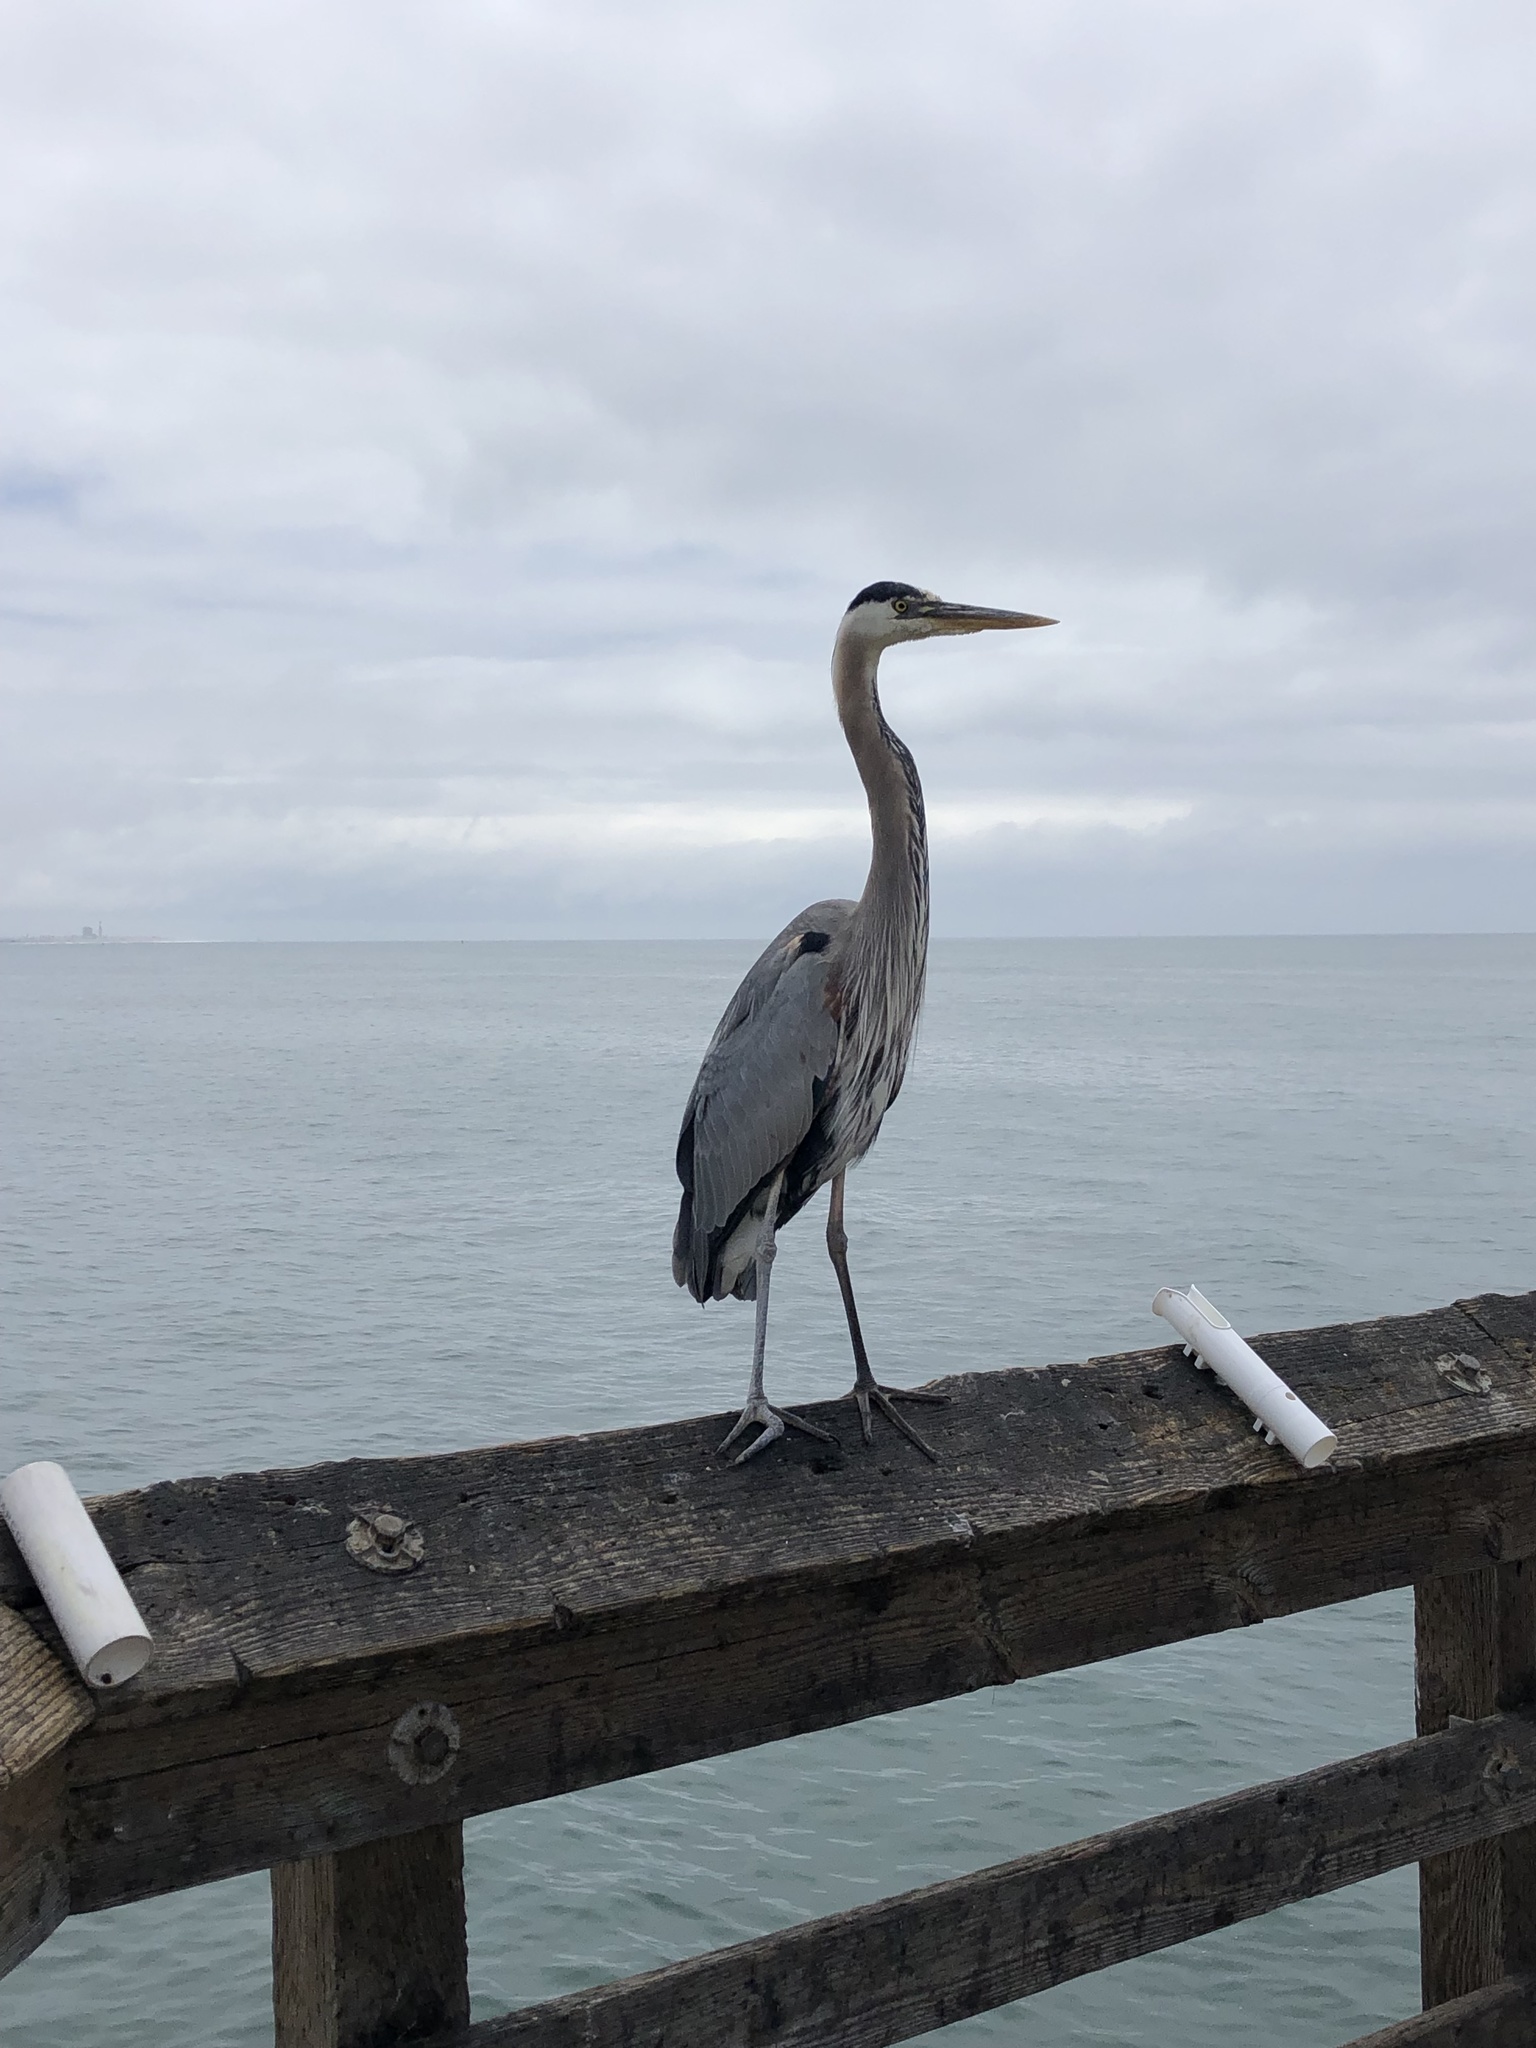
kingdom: Animalia
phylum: Chordata
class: Aves
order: Pelecaniformes
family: Ardeidae
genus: Ardea
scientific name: Ardea herodias
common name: Great blue heron
